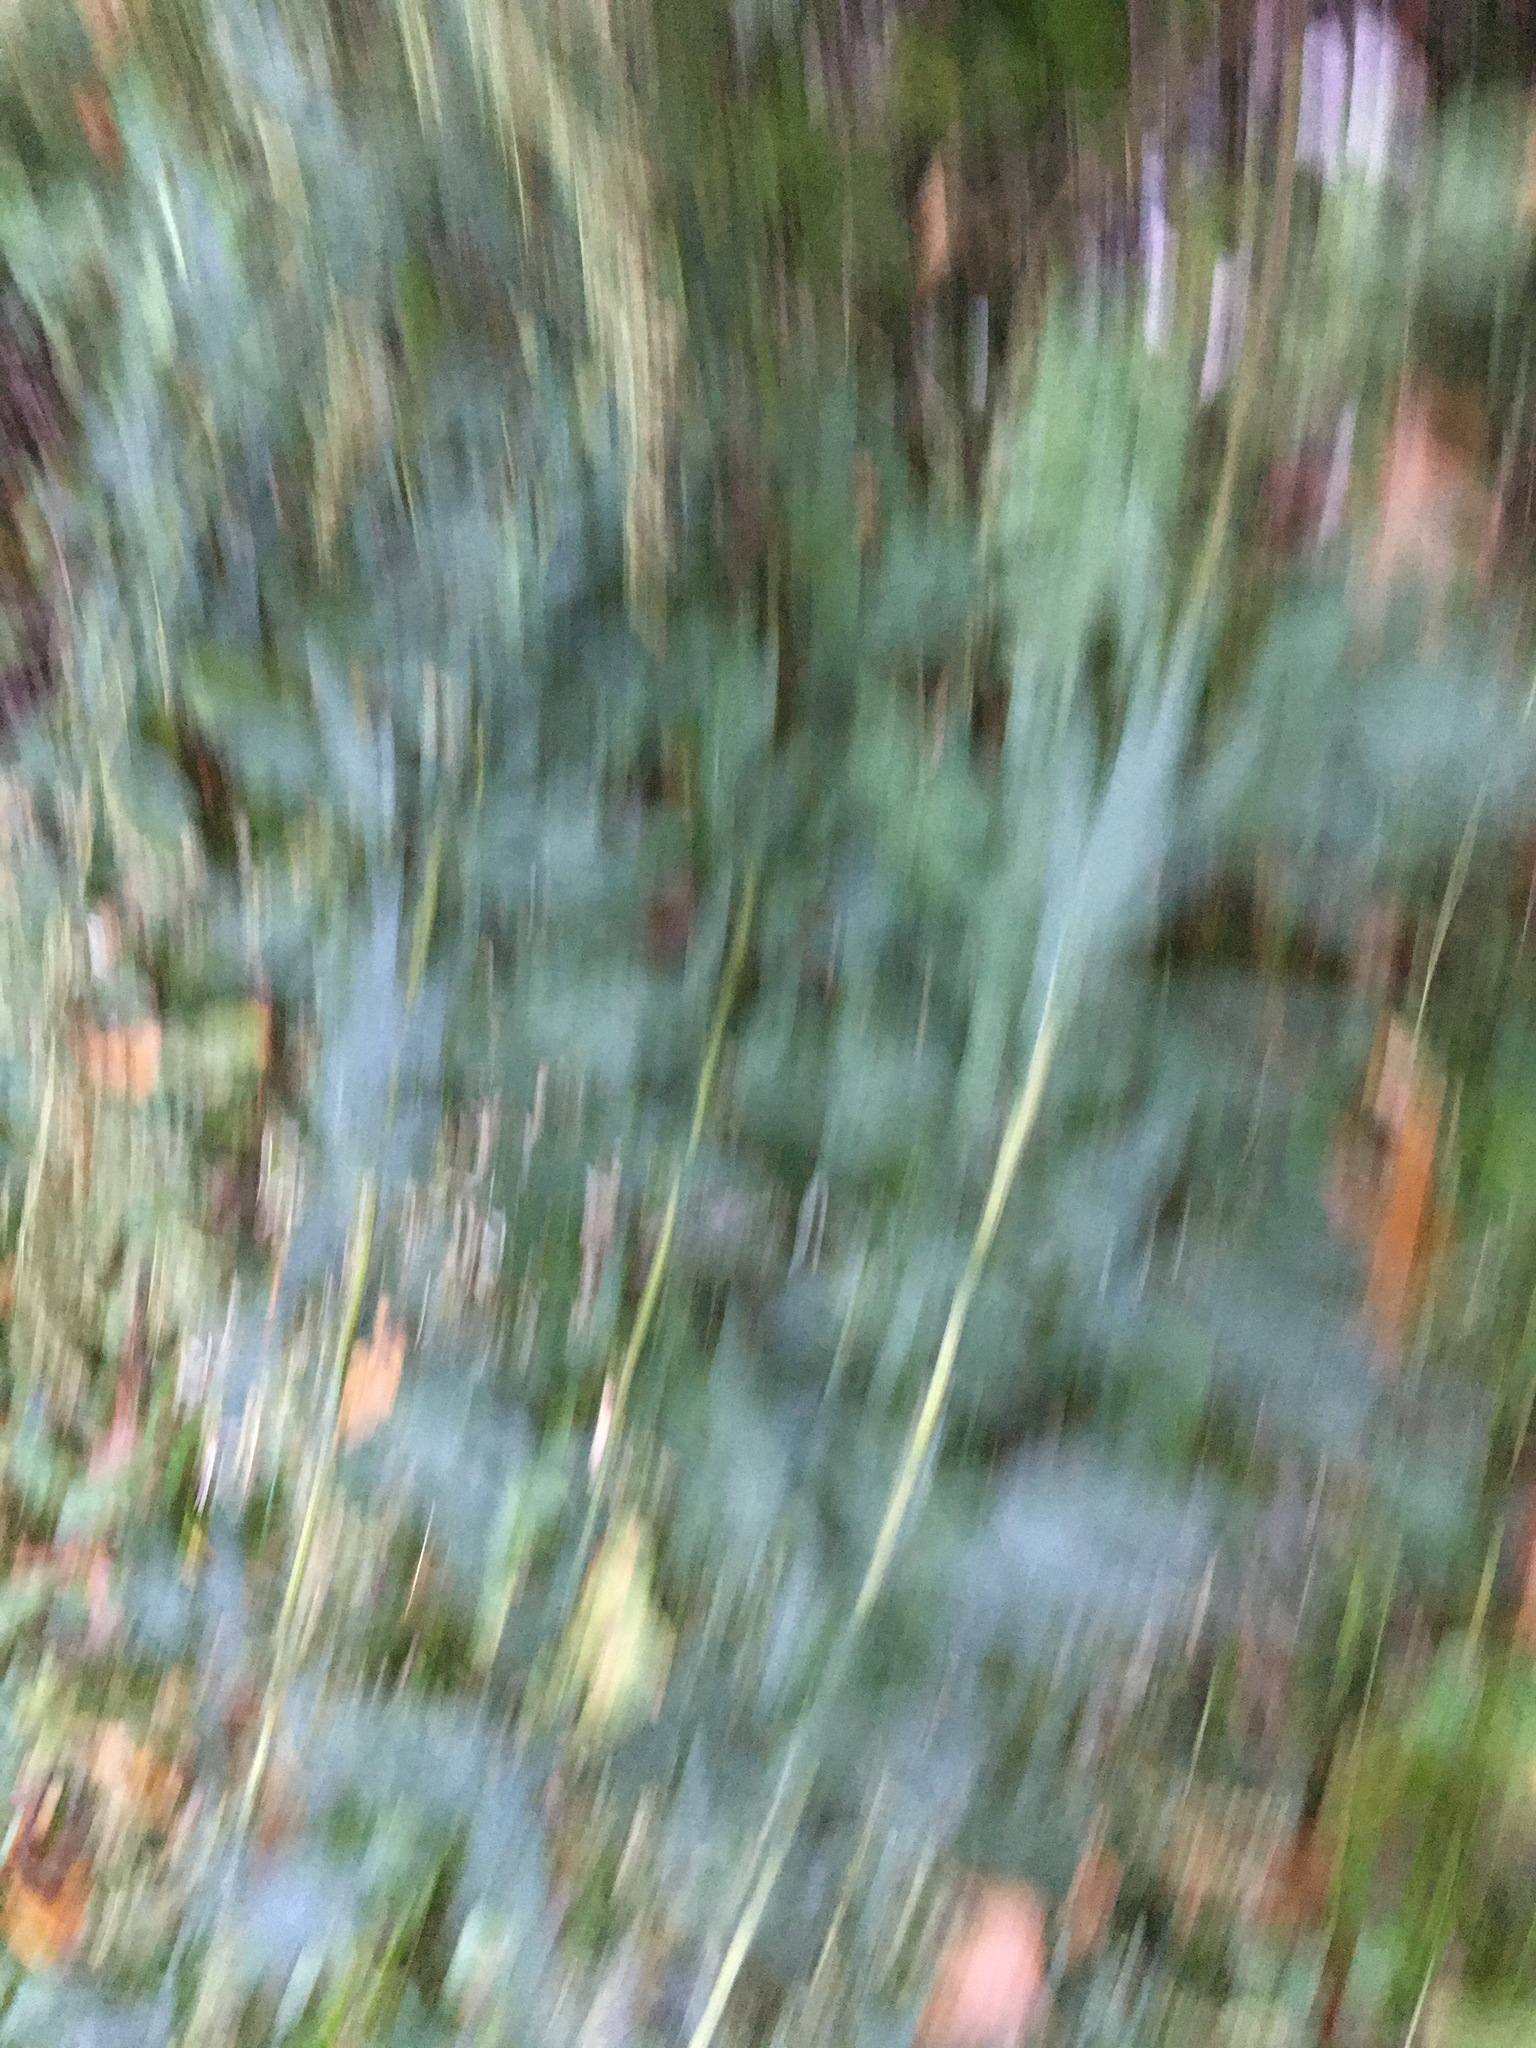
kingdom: Plantae
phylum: Tracheophyta
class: Magnoliopsida
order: Asterales
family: Asteraceae
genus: Artemisia
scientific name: Artemisia vulgaris
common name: Mugwort
